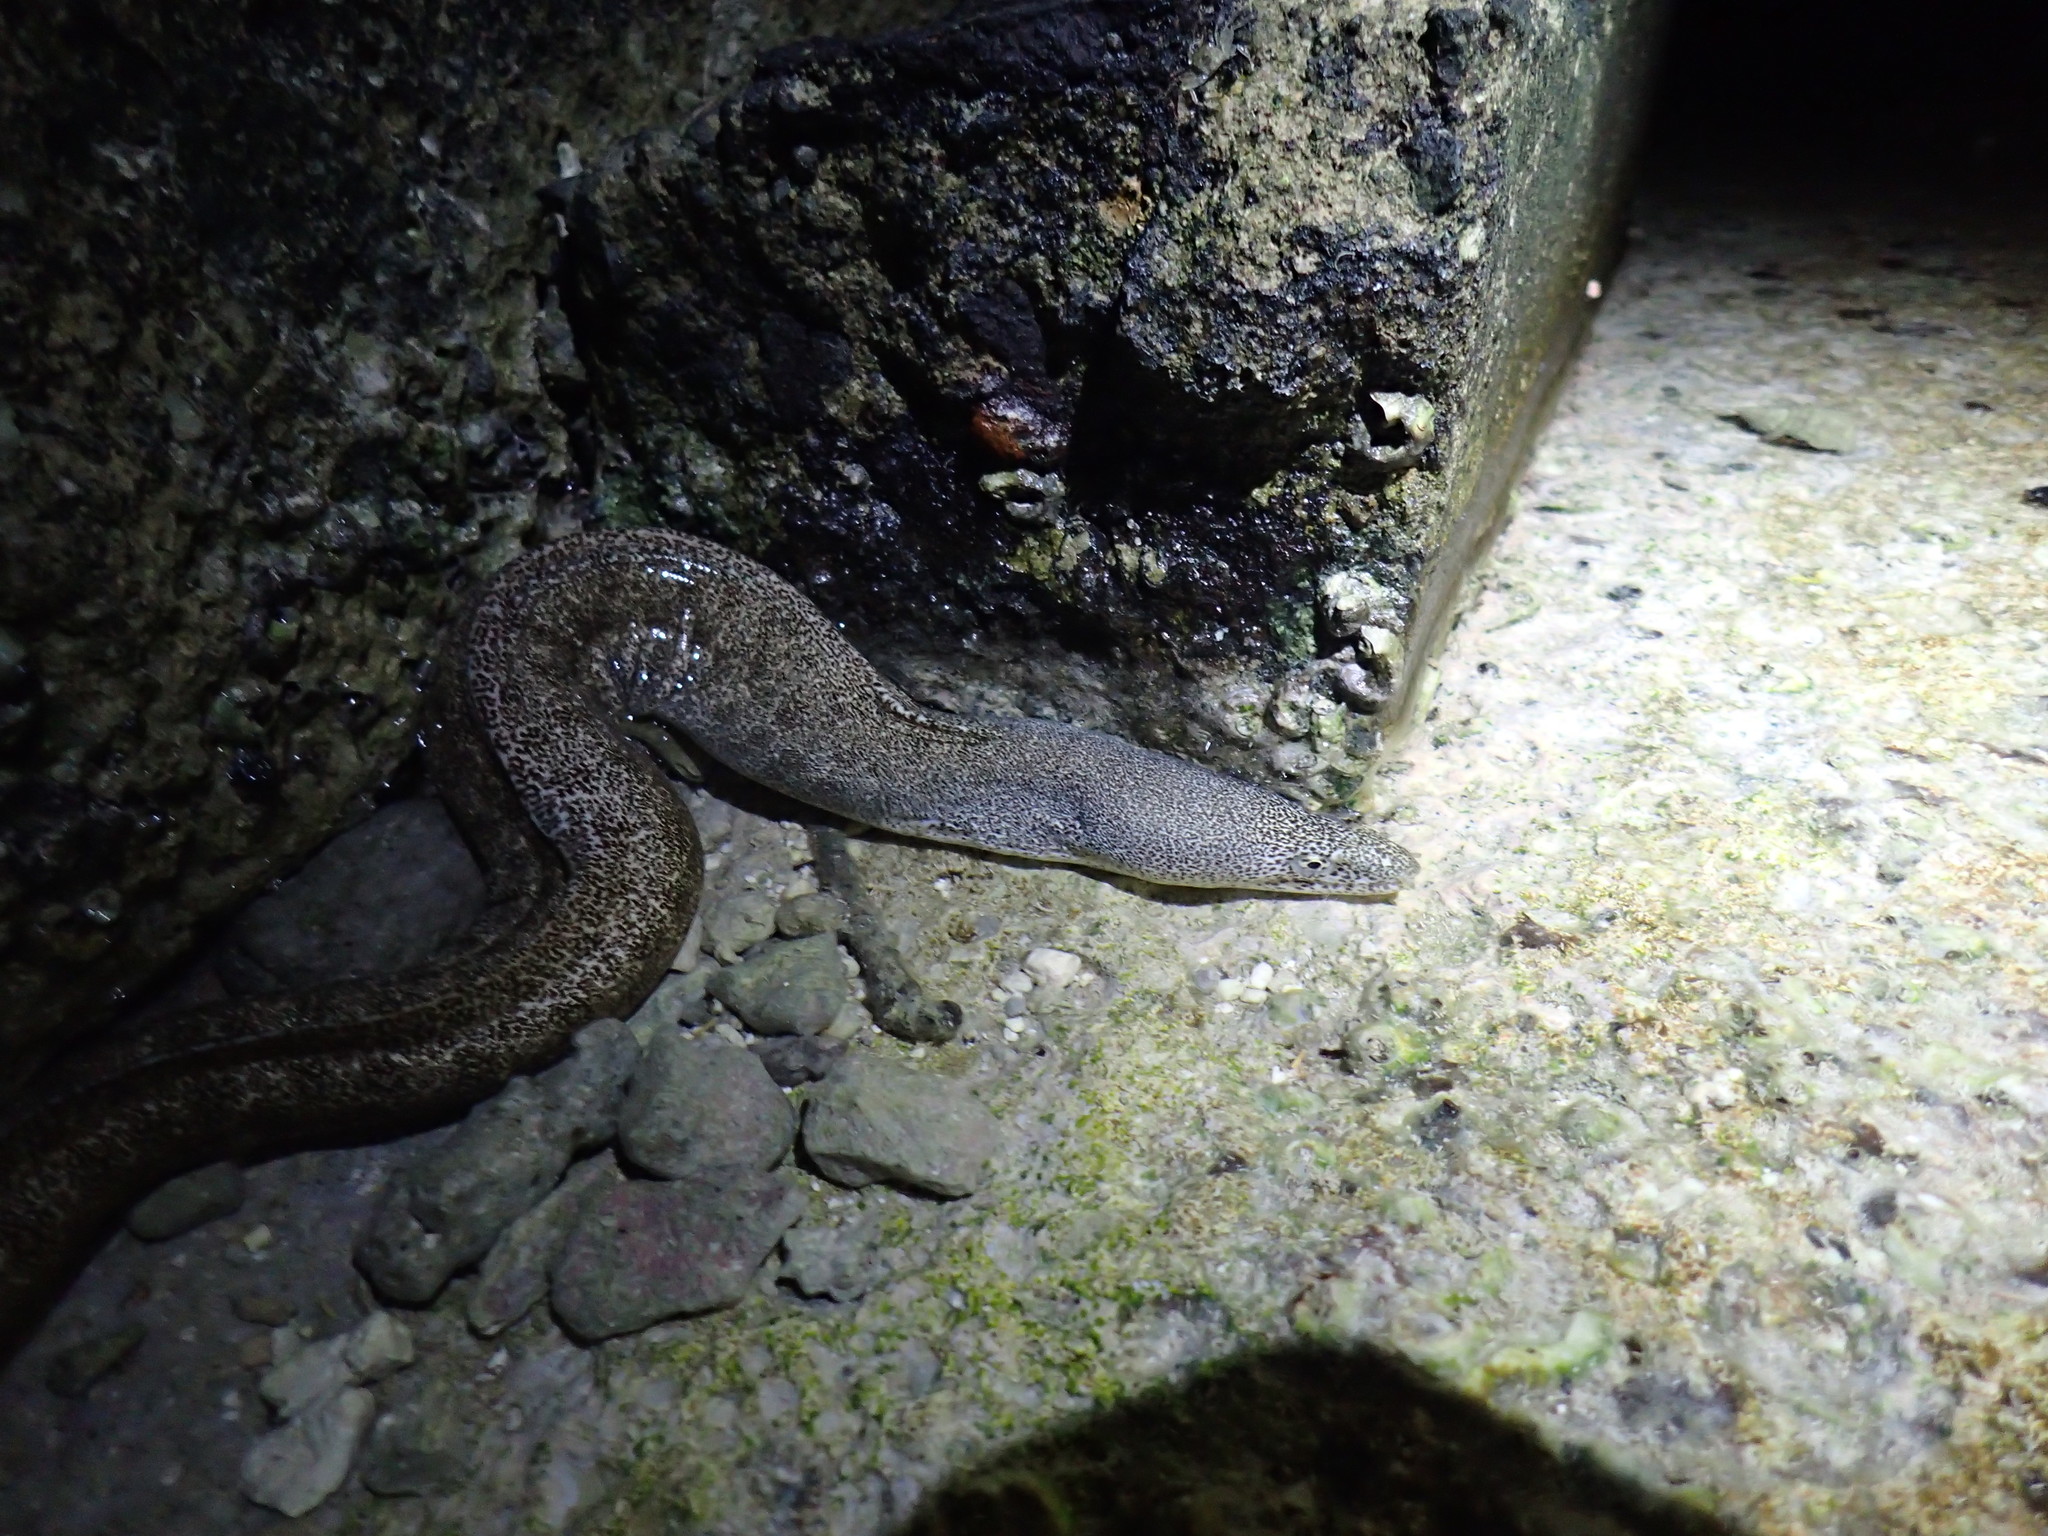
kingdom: Animalia
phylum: Chordata
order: Anguilliformes
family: Muraenidae
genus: Gymnothorax
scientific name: Gymnothorax pictus
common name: Peppered moray
